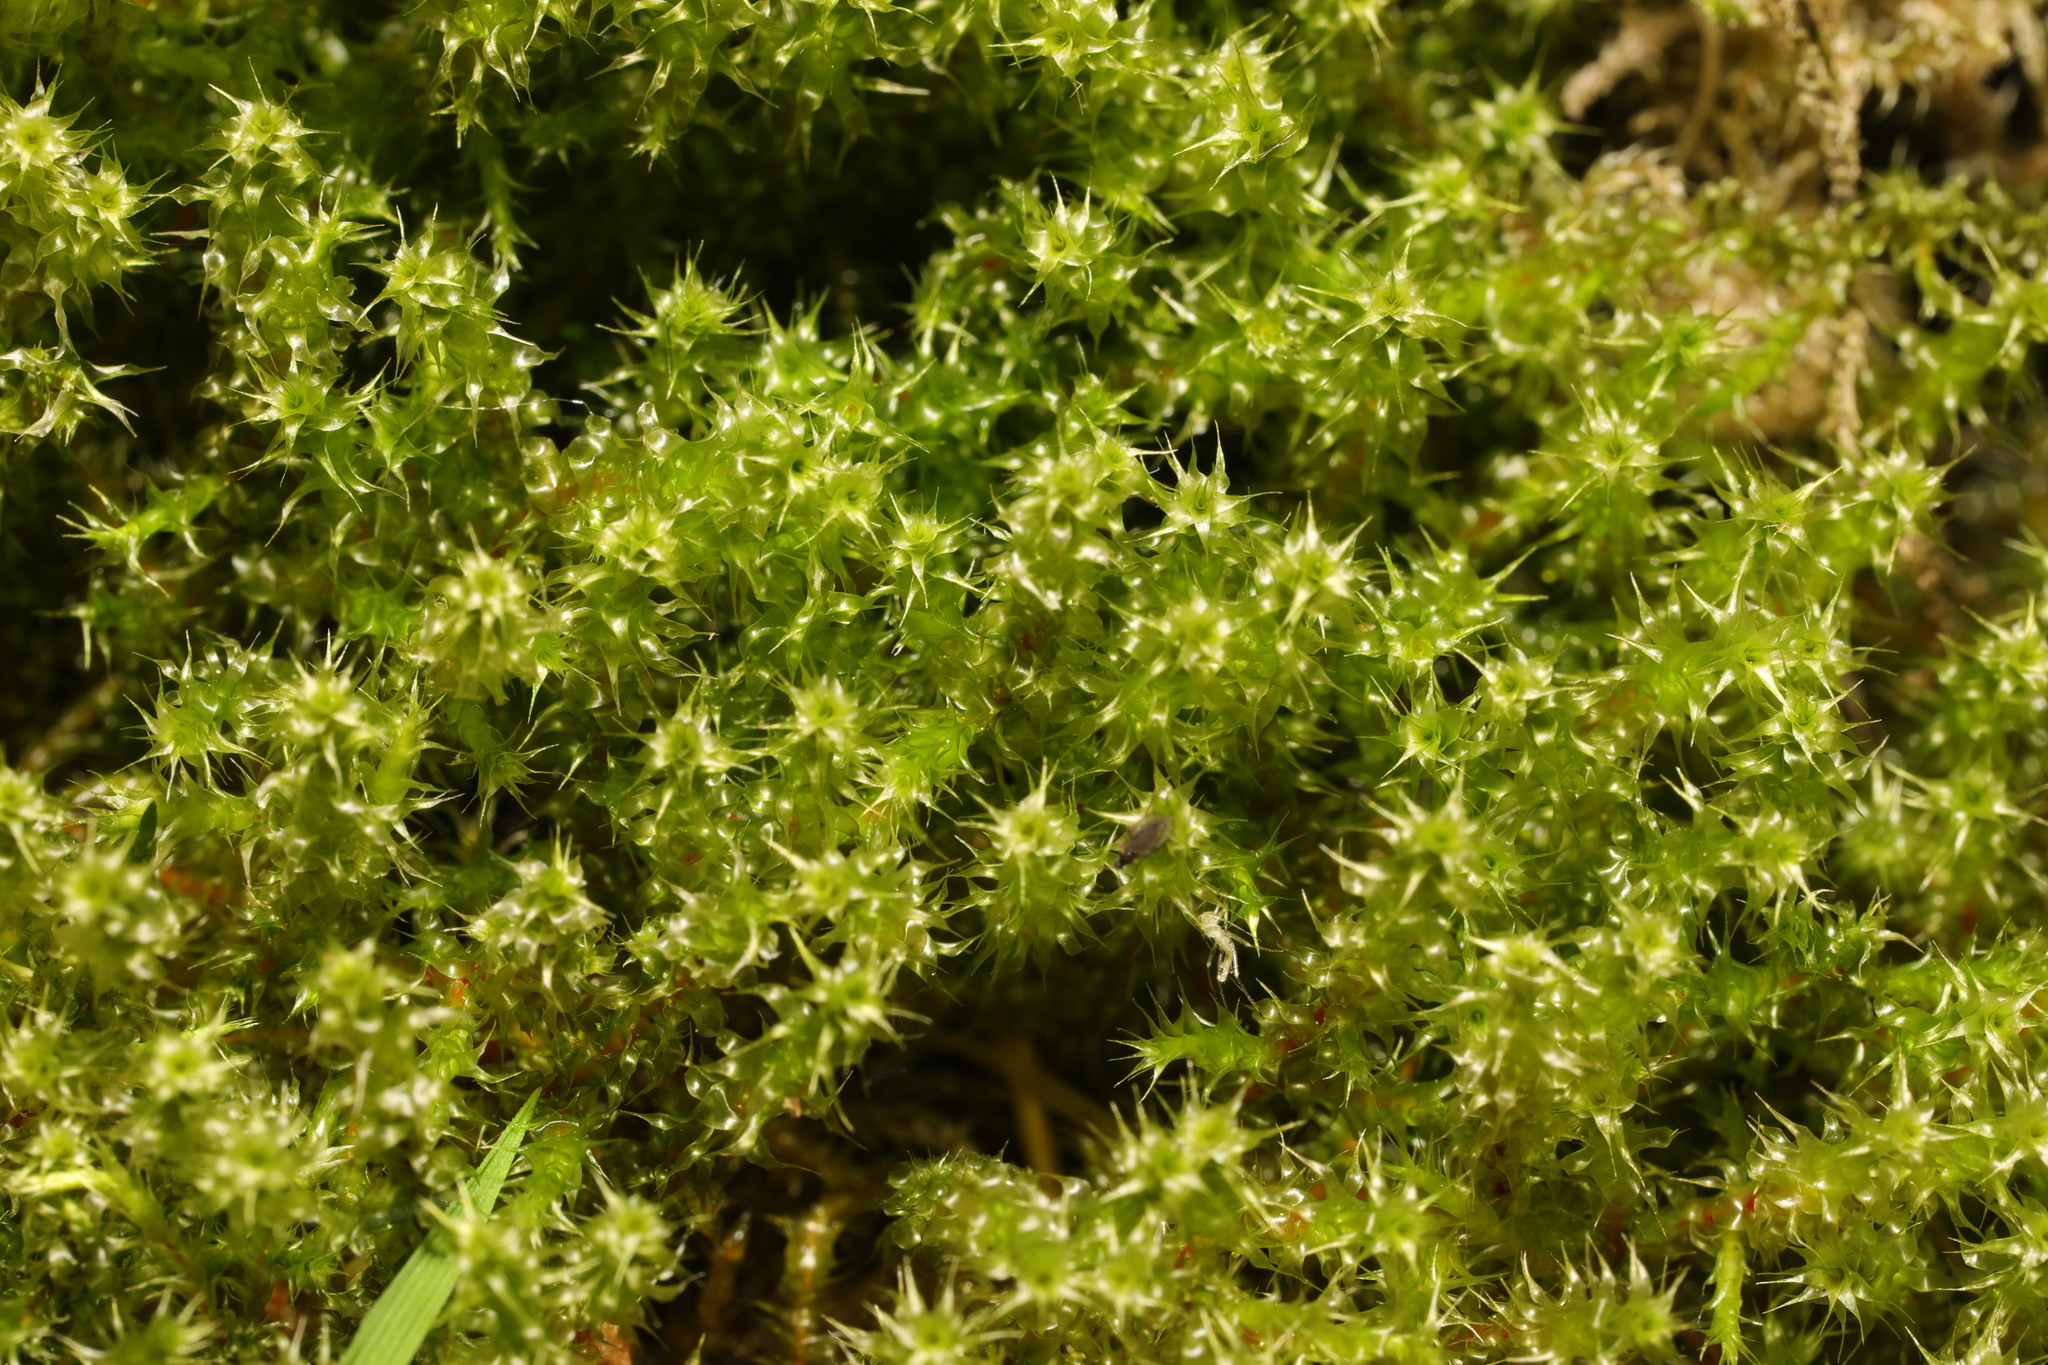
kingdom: Plantae
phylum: Bryophyta
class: Bryopsida
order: Hypnales
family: Hylocomiaceae
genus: Rhytidiadelphus
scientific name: Rhytidiadelphus squarrosus
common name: Springy turf-moss
